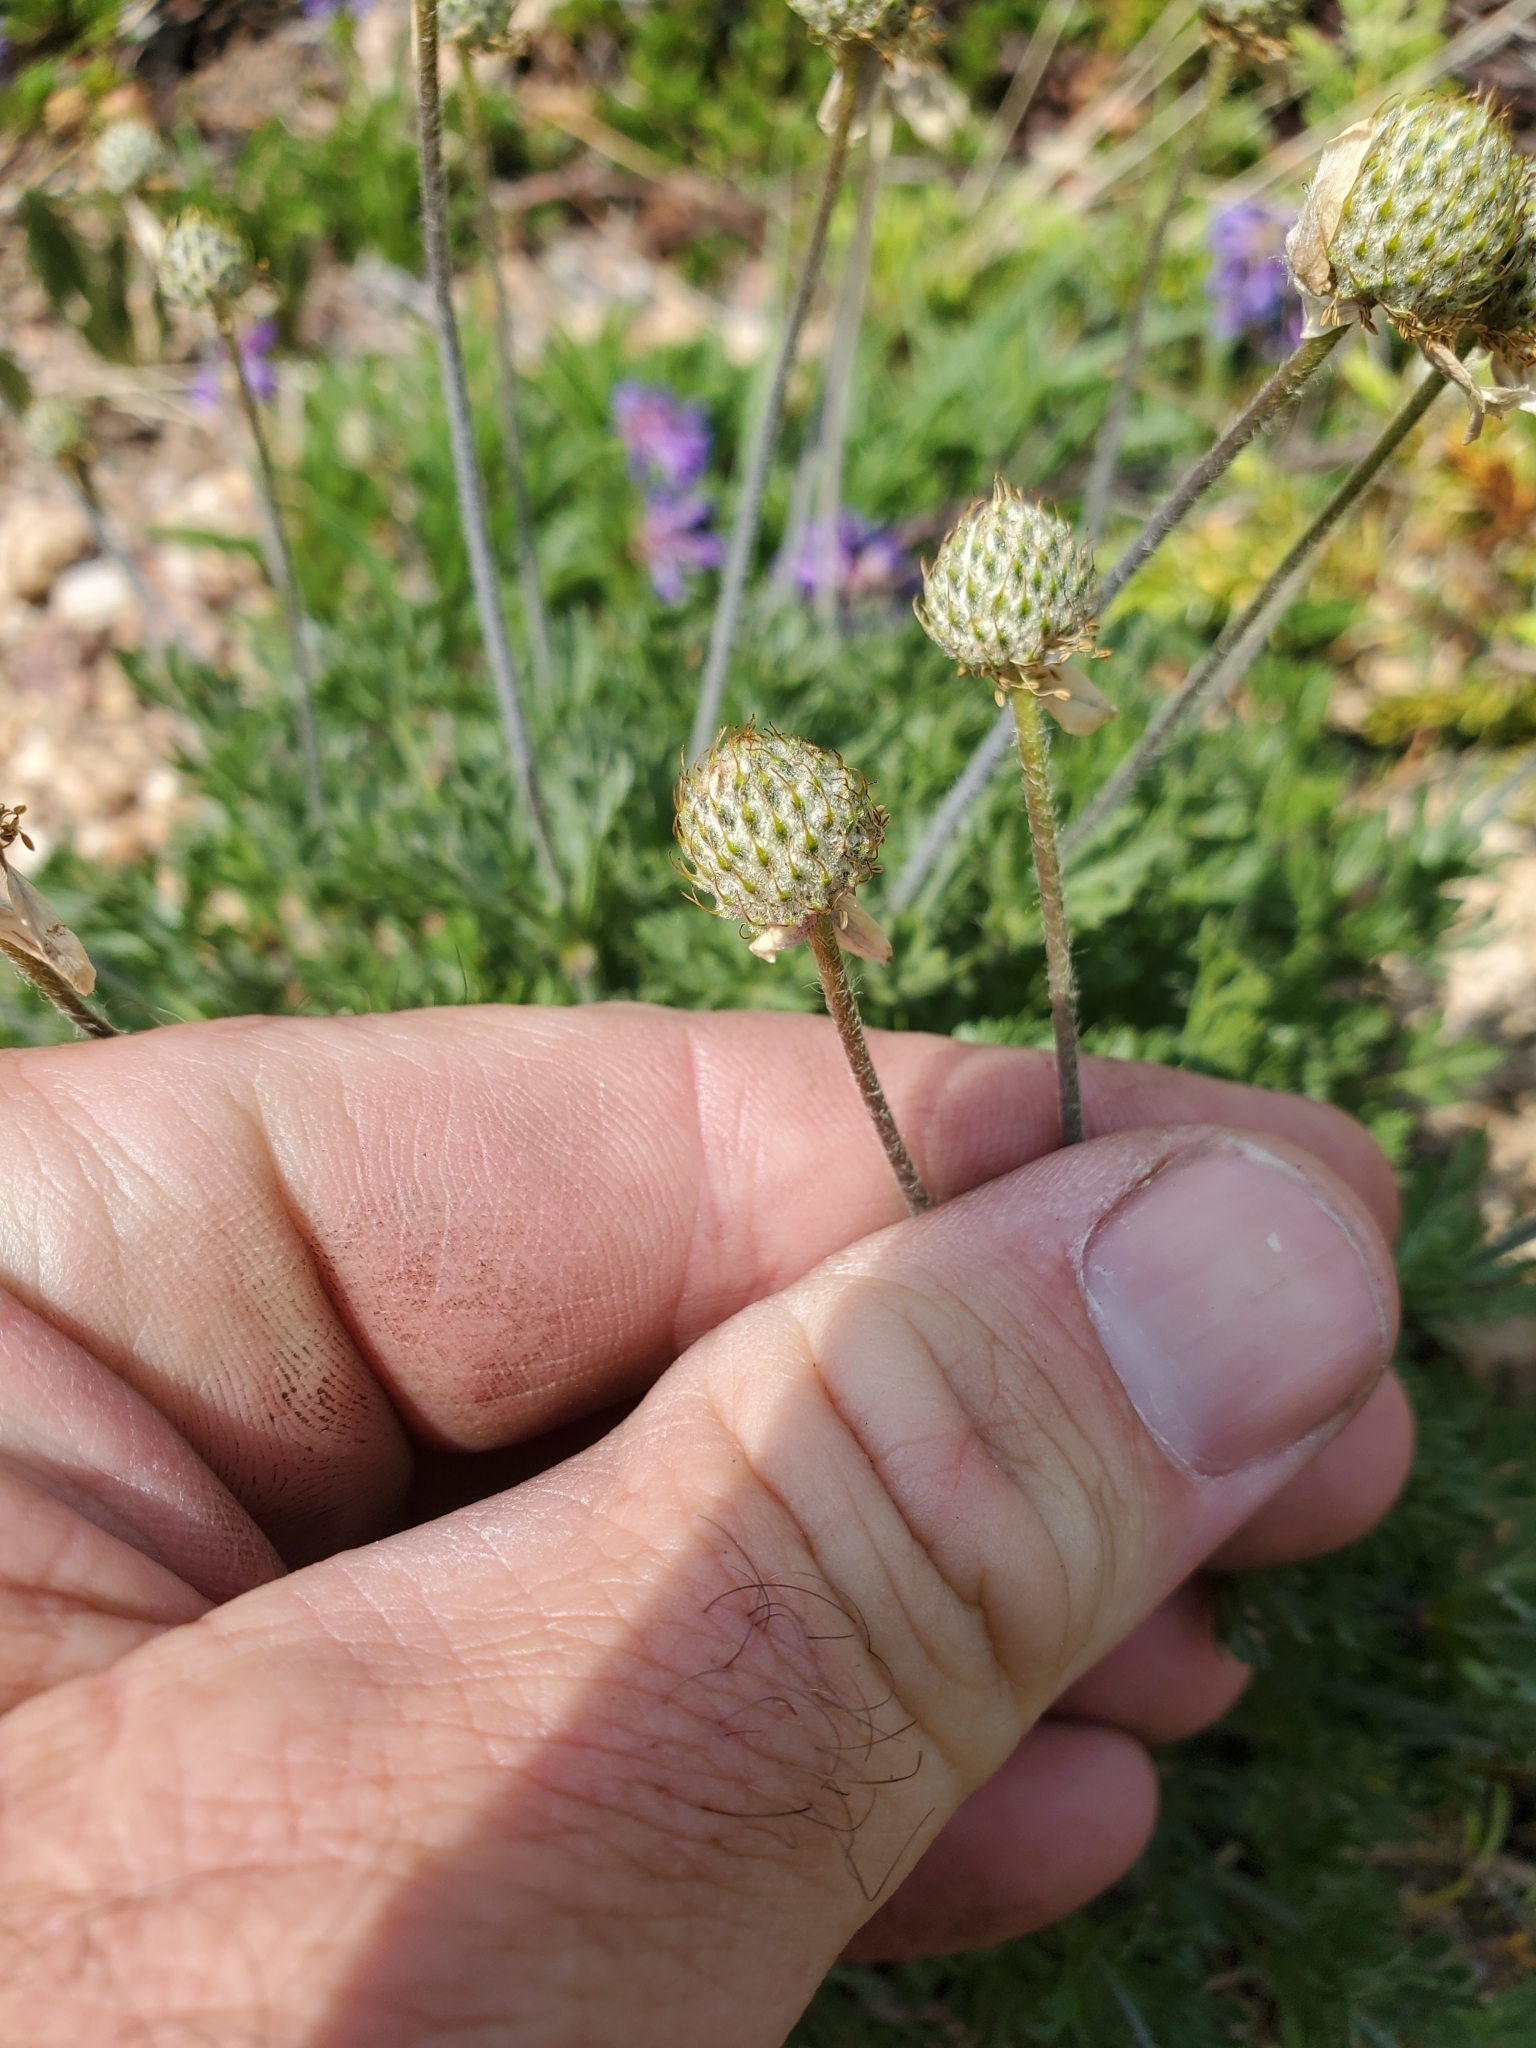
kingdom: Plantae
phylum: Tracheophyta
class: Magnoliopsida
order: Ranunculales
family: Ranunculaceae
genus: Anemone
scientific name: Anemone drummondii
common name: Drummond's anemone
